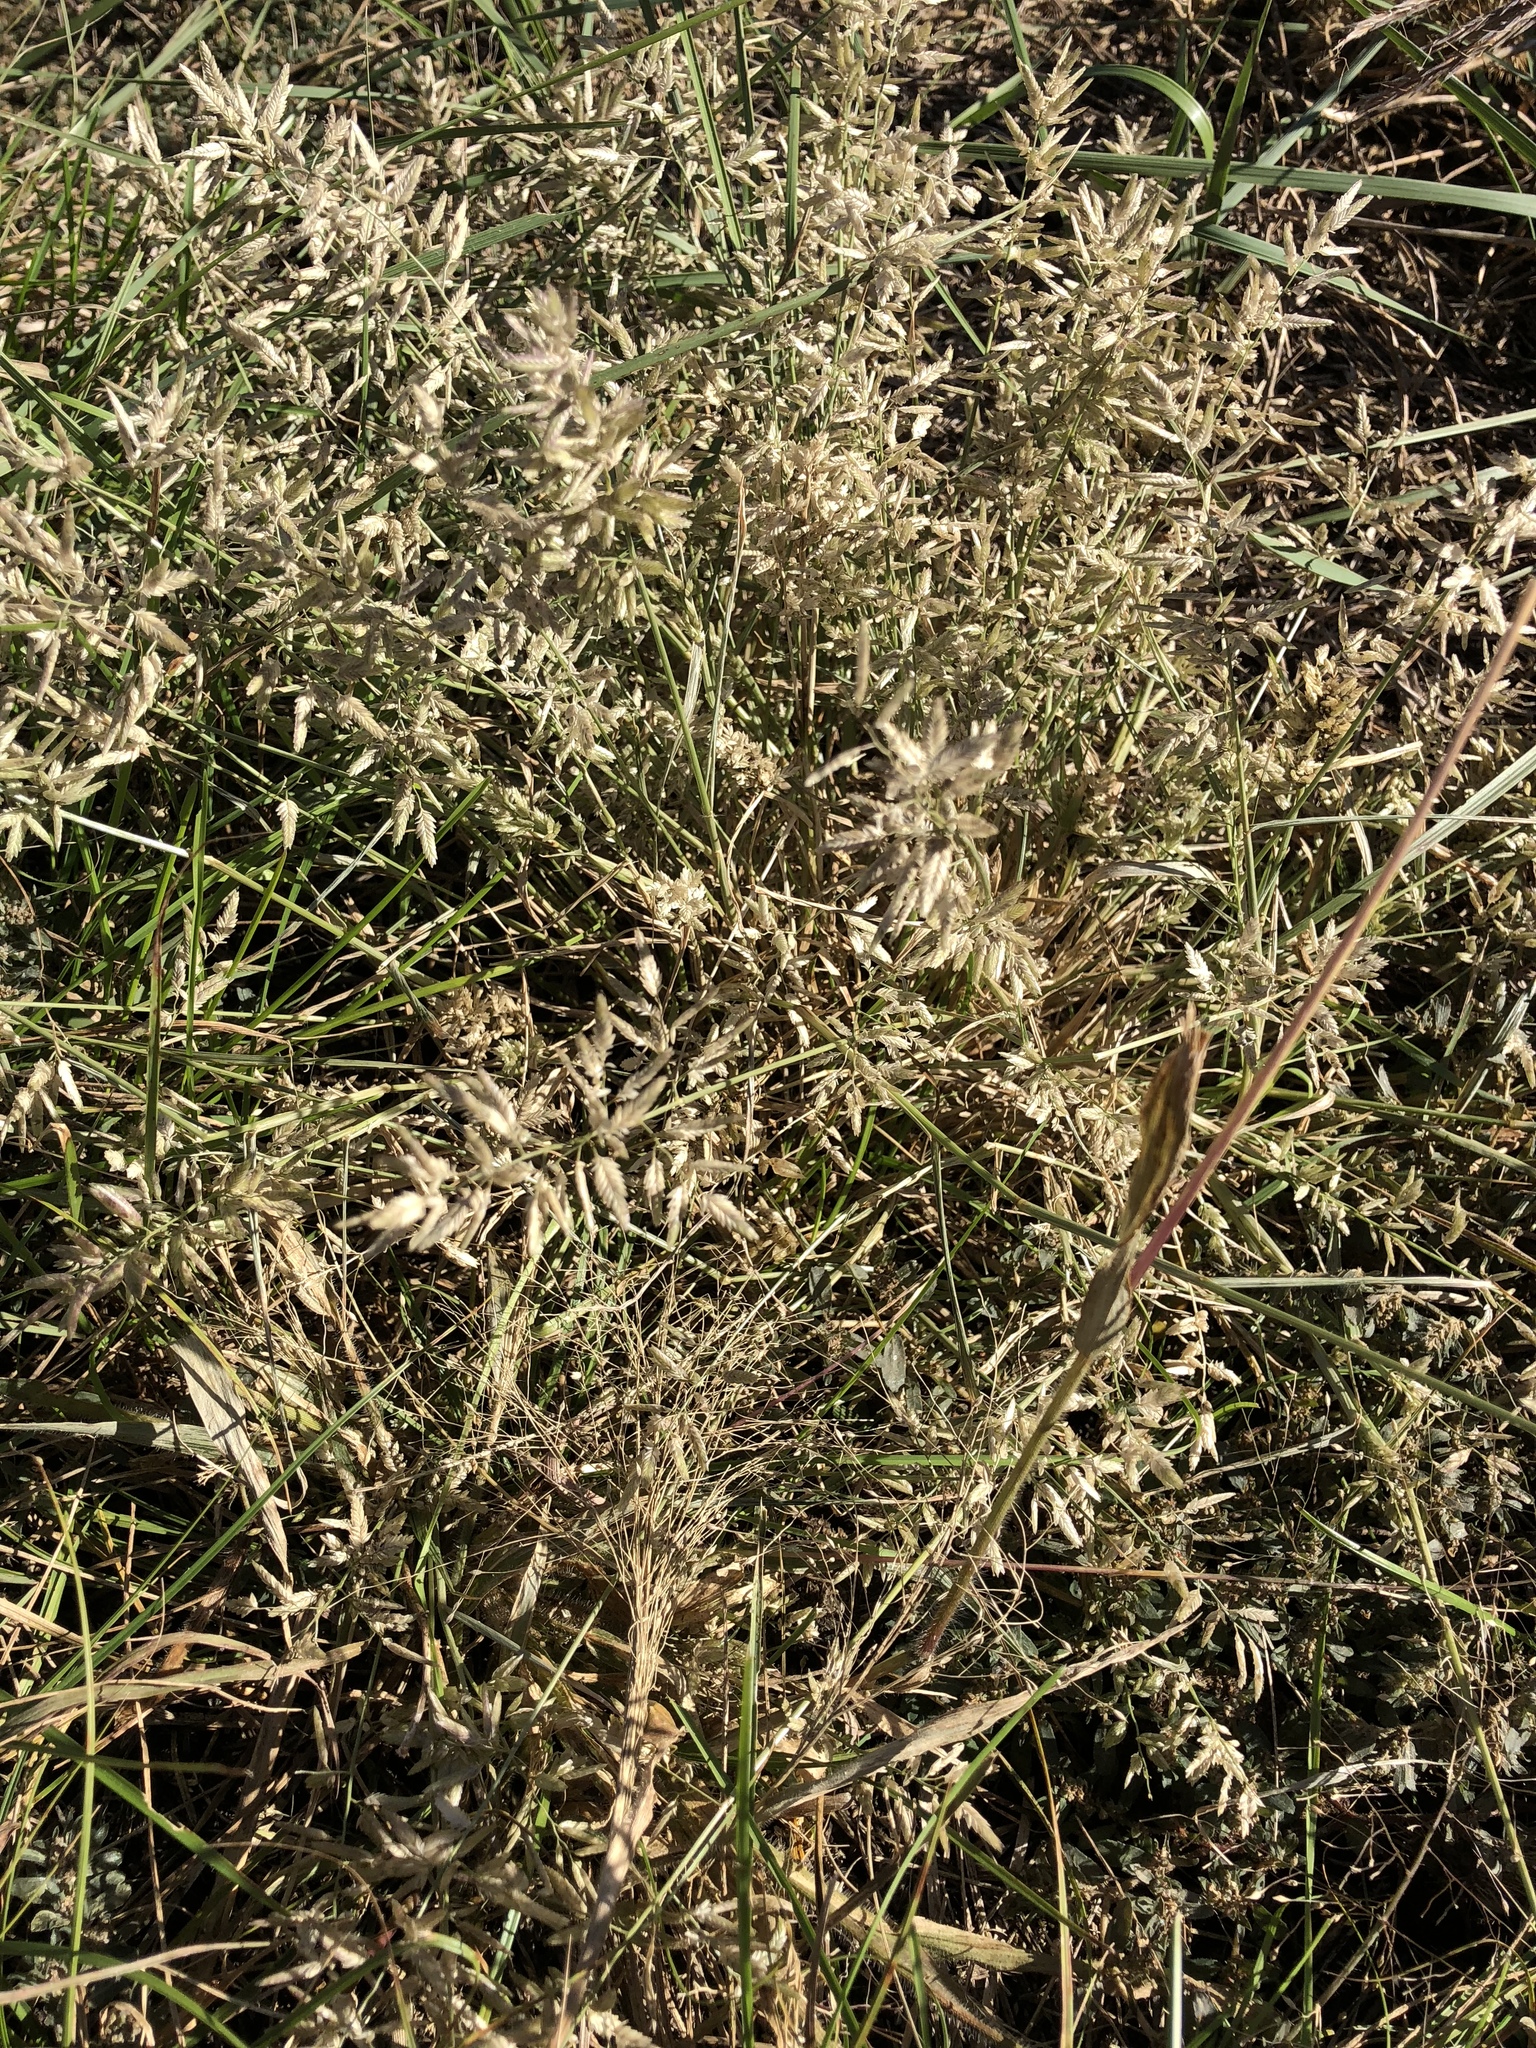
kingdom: Plantae
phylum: Tracheophyta
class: Liliopsida
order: Poales
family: Poaceae
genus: Eragrostis
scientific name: Eragrostis cilianensis
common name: Stinkgrass
